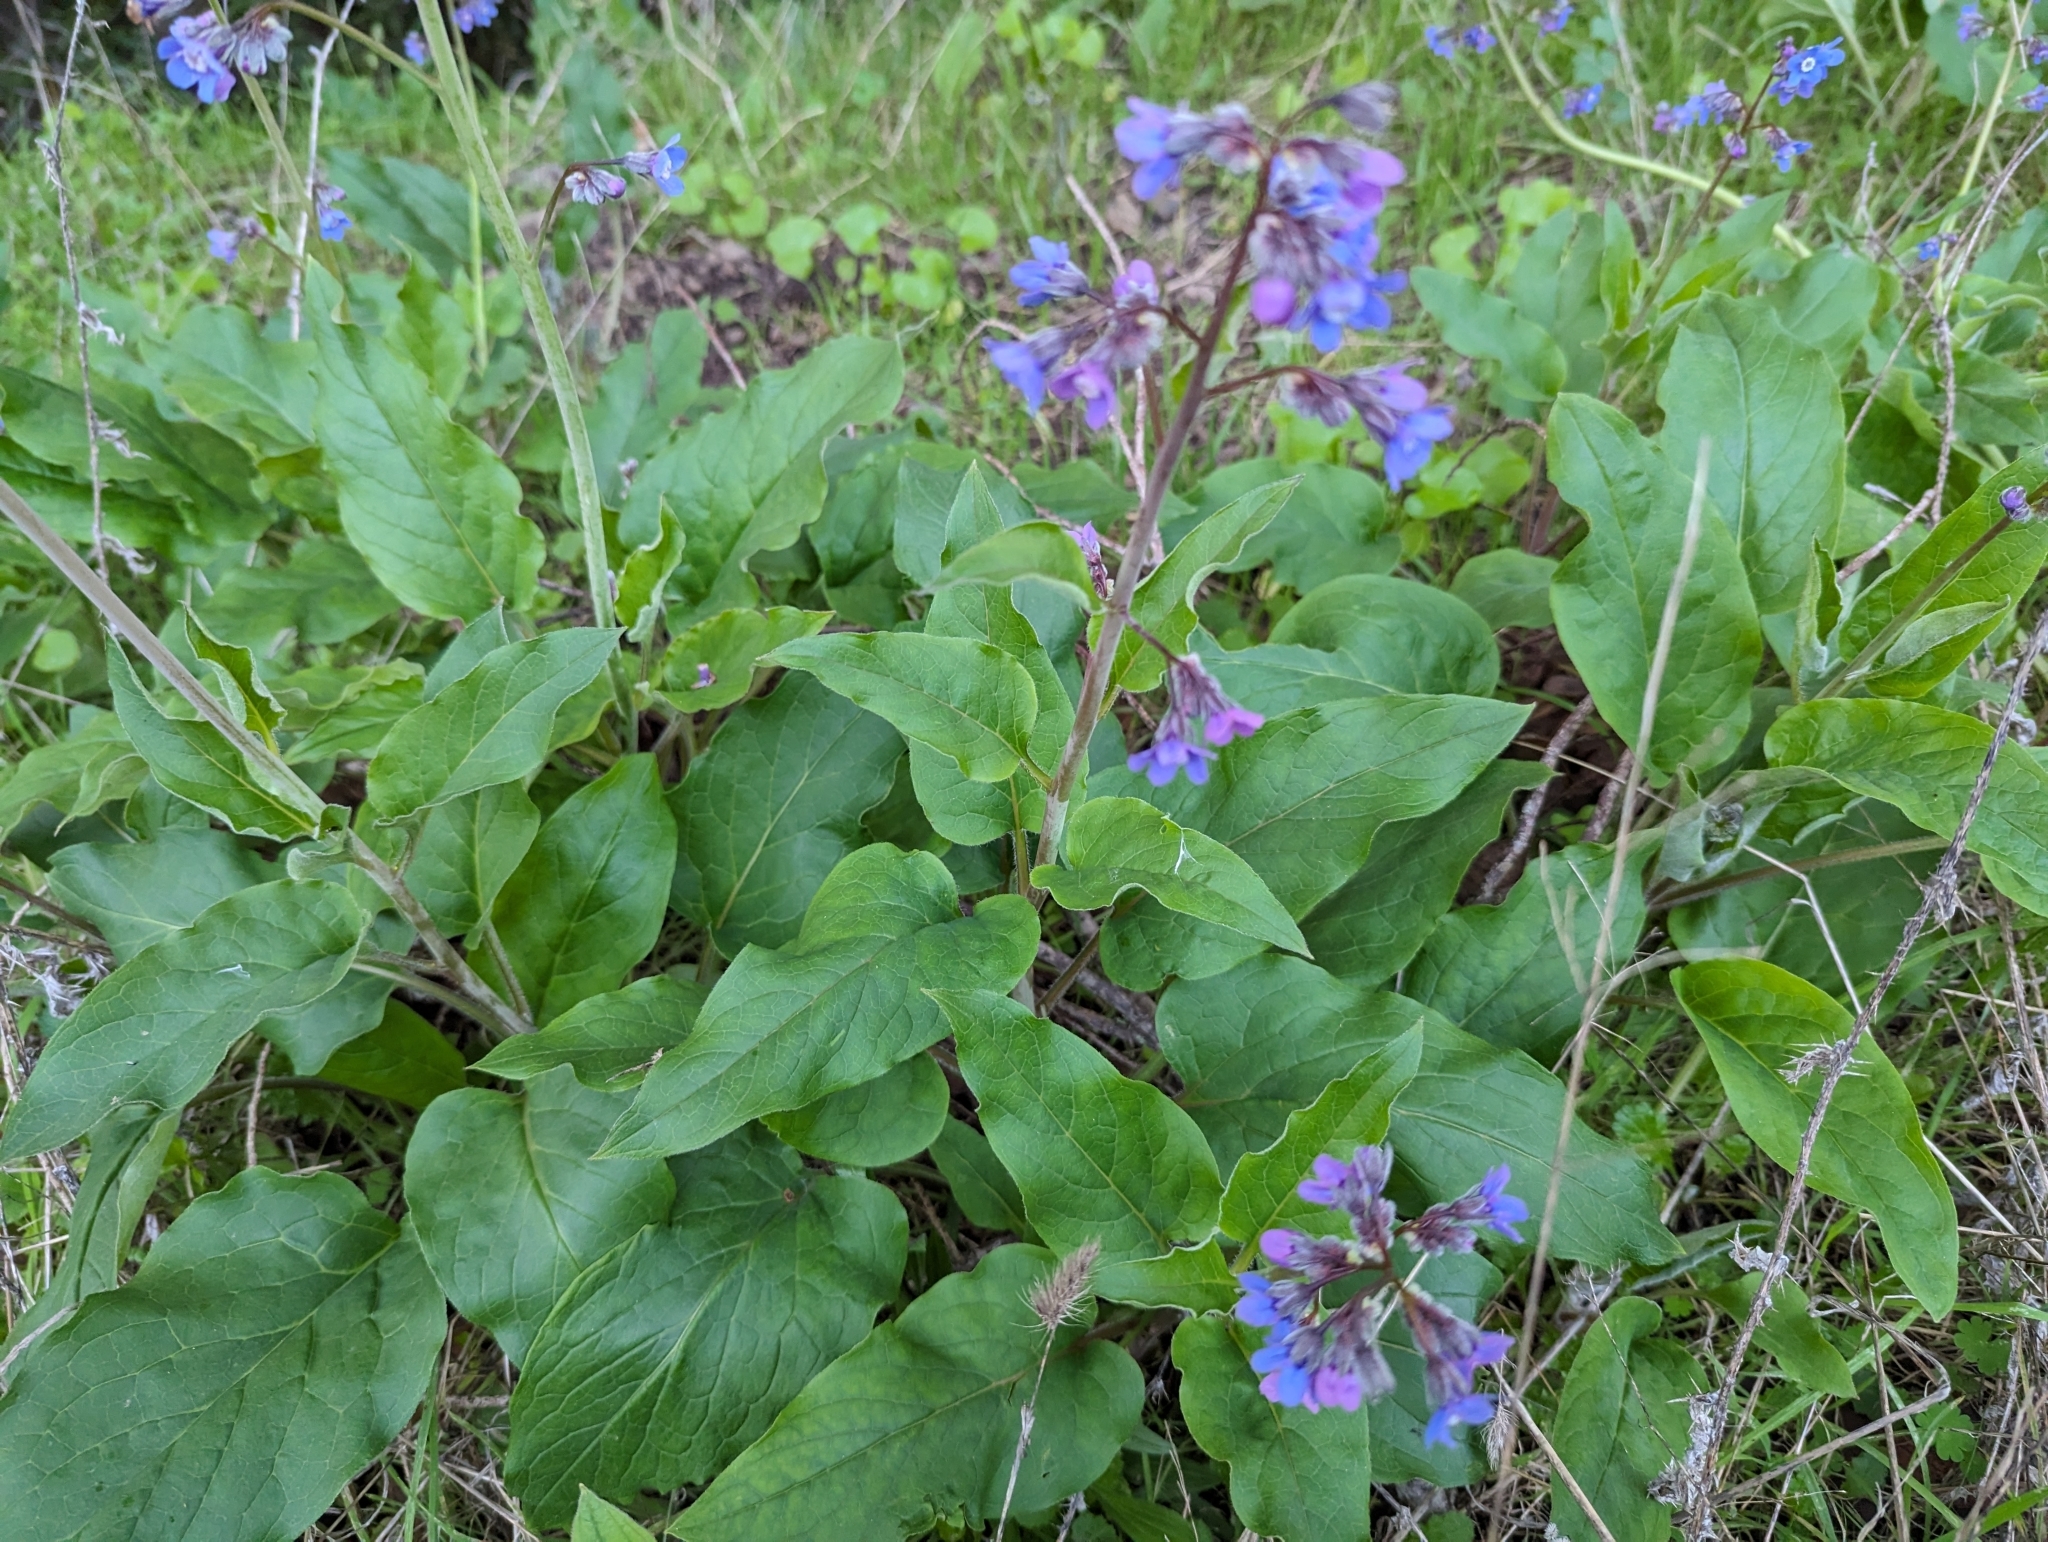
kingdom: Plantae
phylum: Tracheophyta
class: Magnoliopsida
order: Boraginales
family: Boraginaceae
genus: Adelinia
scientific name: Adelinia grande
